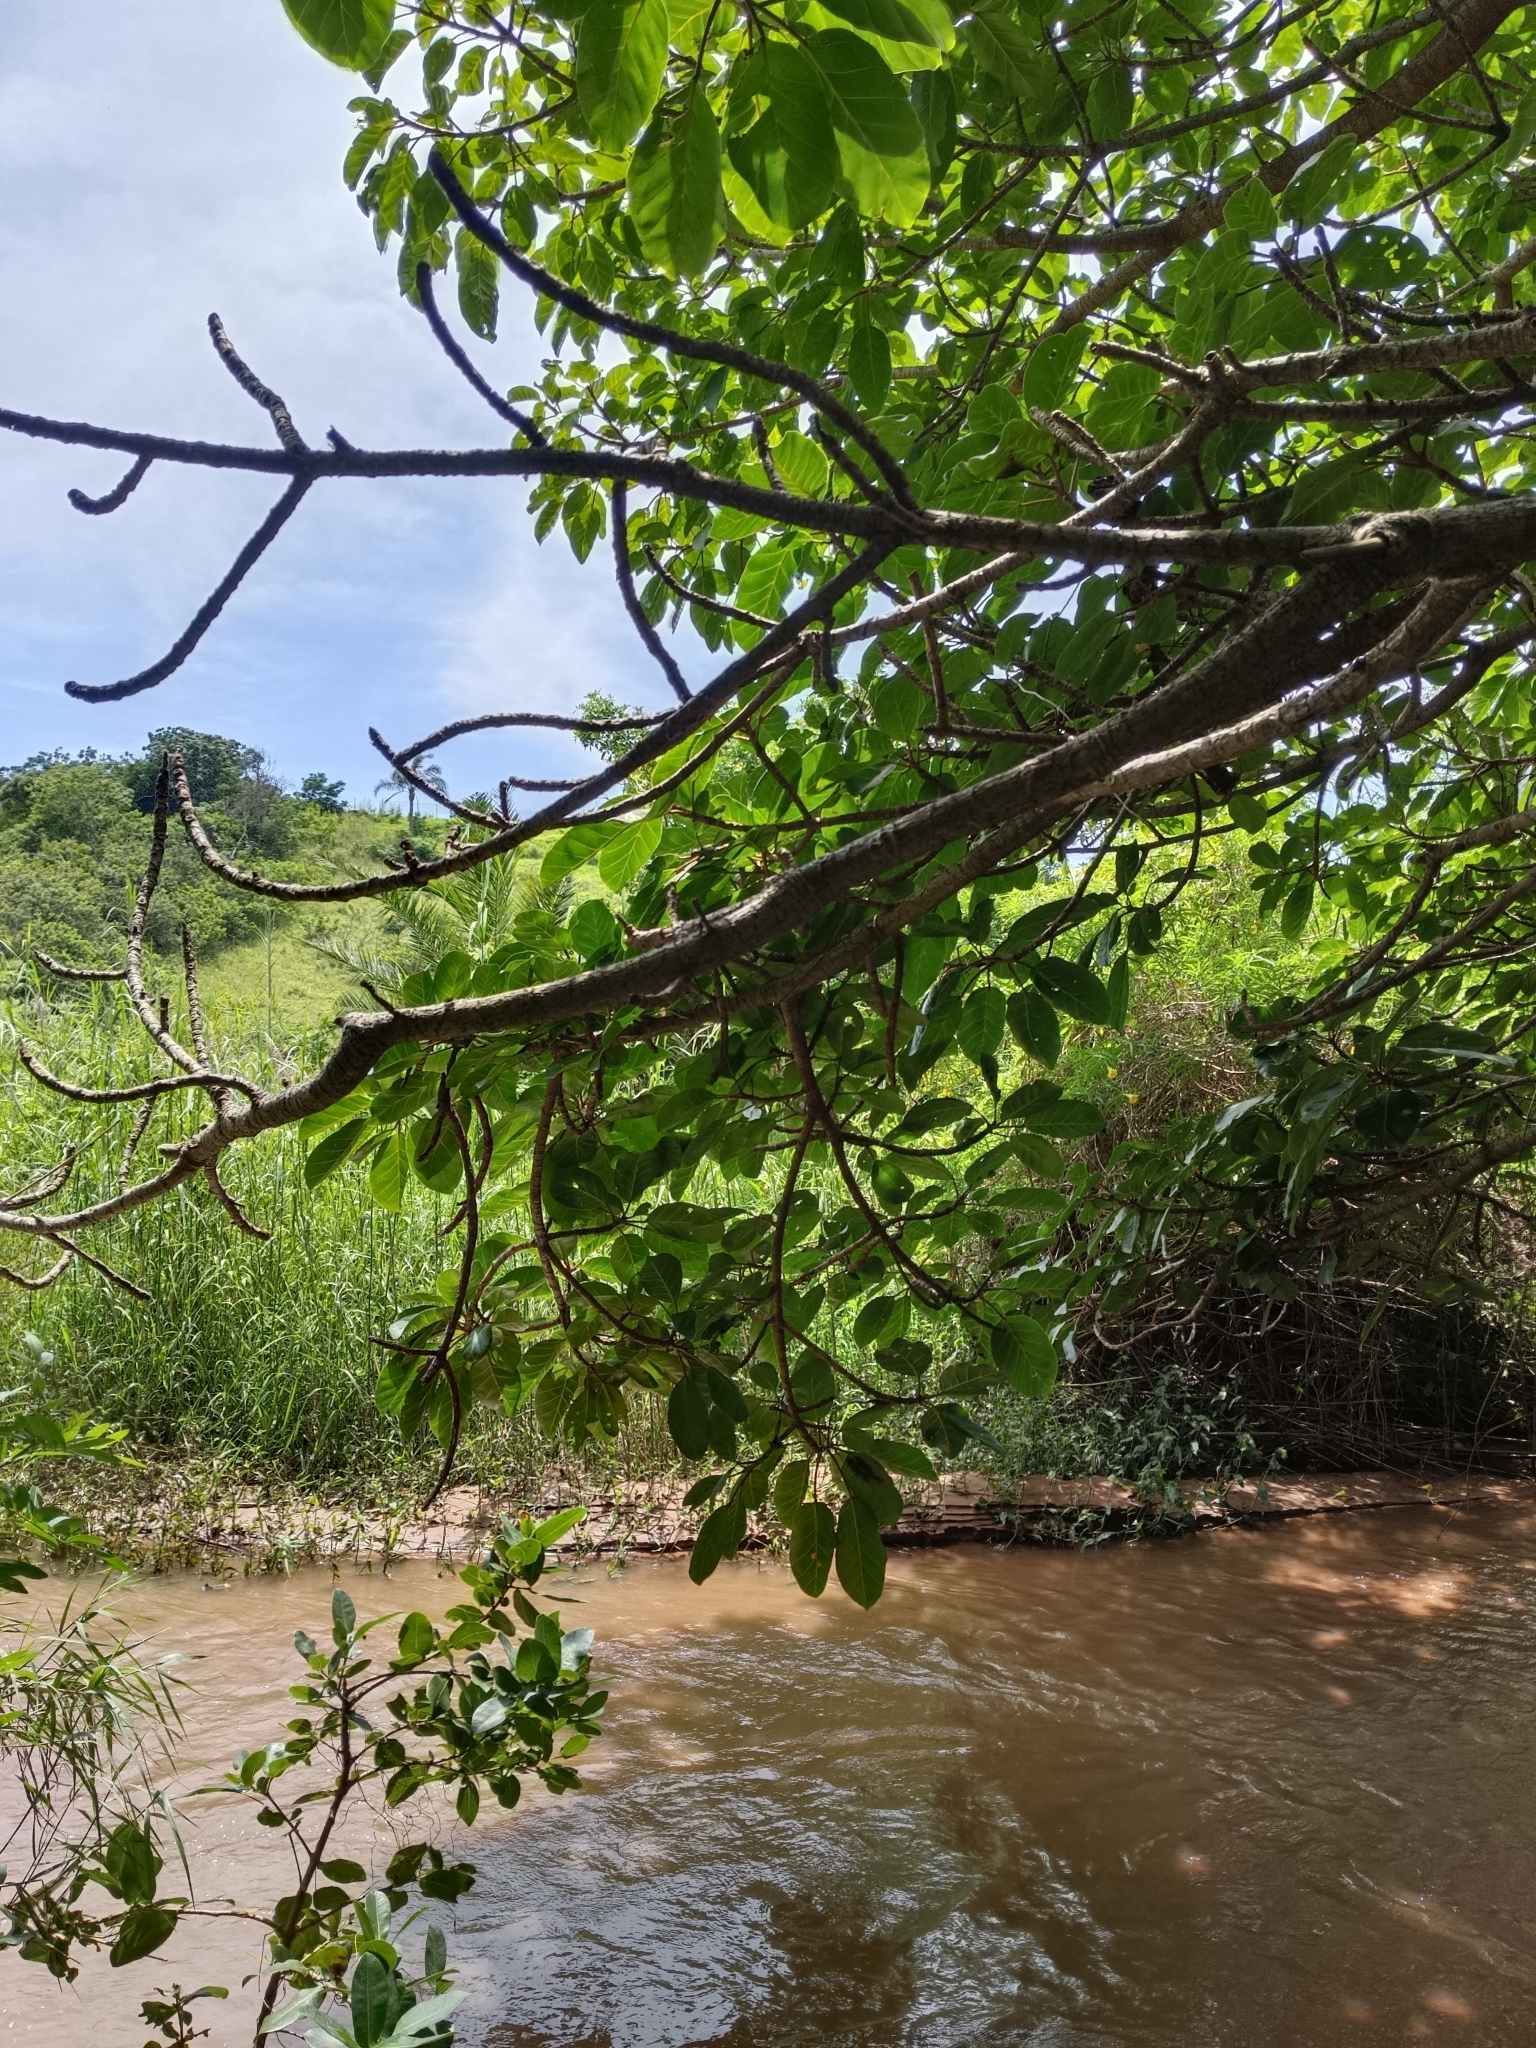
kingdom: Plantae
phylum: Tracheophyta
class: Magnoliopsida
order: Rosales
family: Moraceae
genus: Ficus
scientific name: Ficus lutea
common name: Giant-leaved fig
